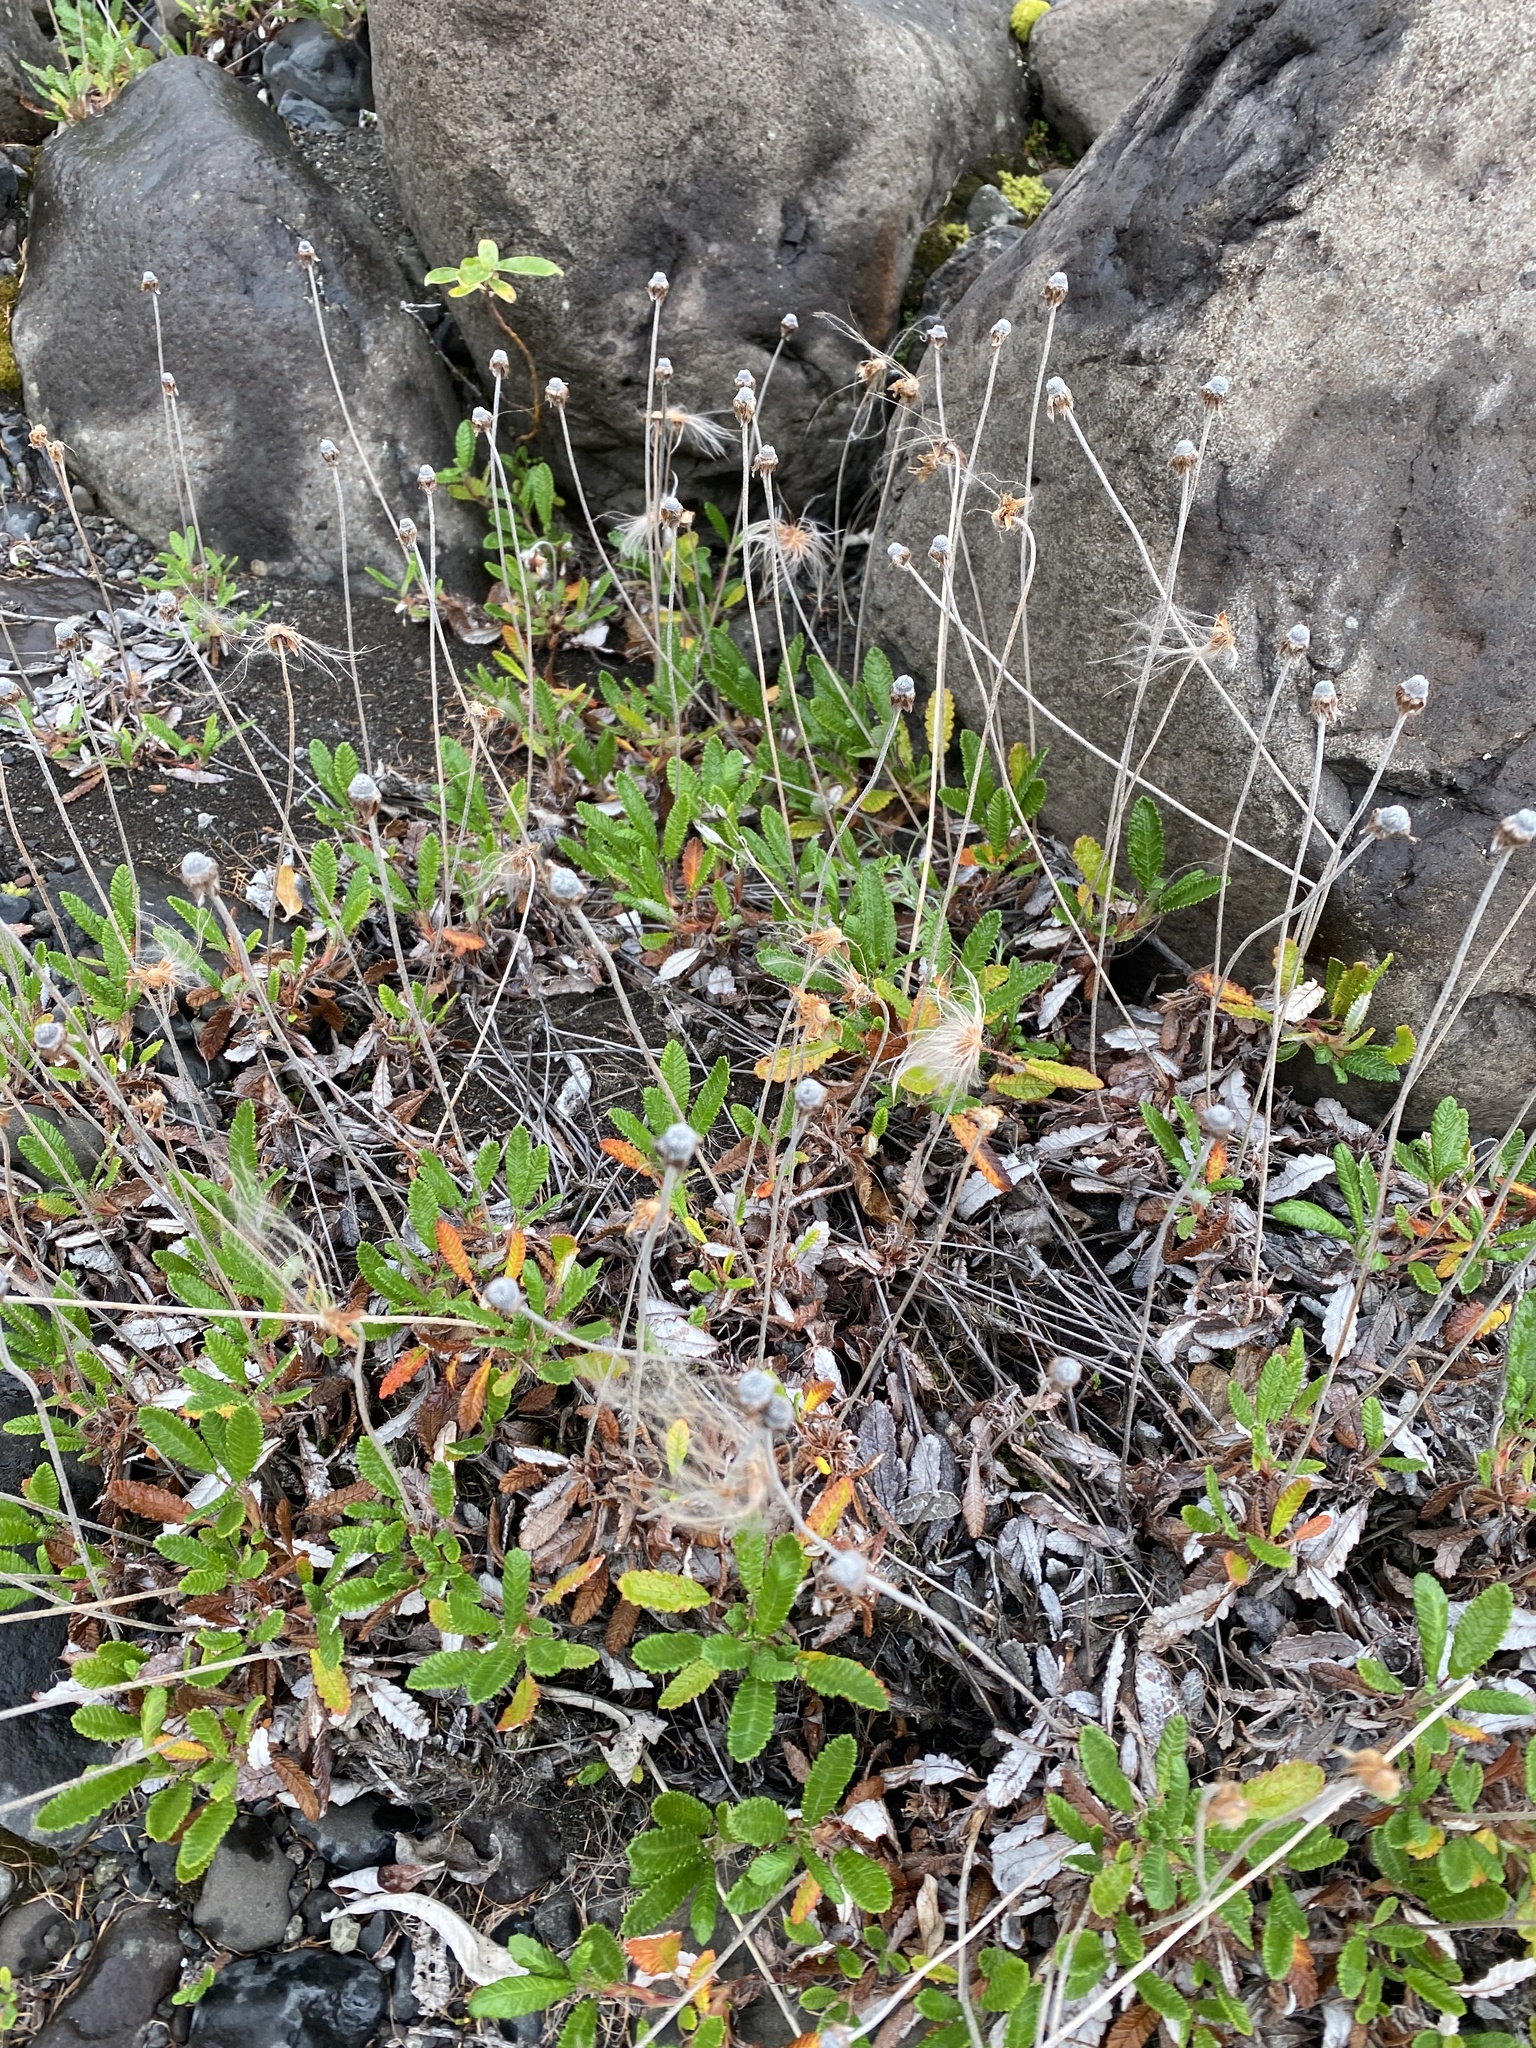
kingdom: Plantae
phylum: Tracheophyta
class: Magnoliopsida
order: Rosales
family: Rosaceae
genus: Dryas
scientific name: Dryas grandis
